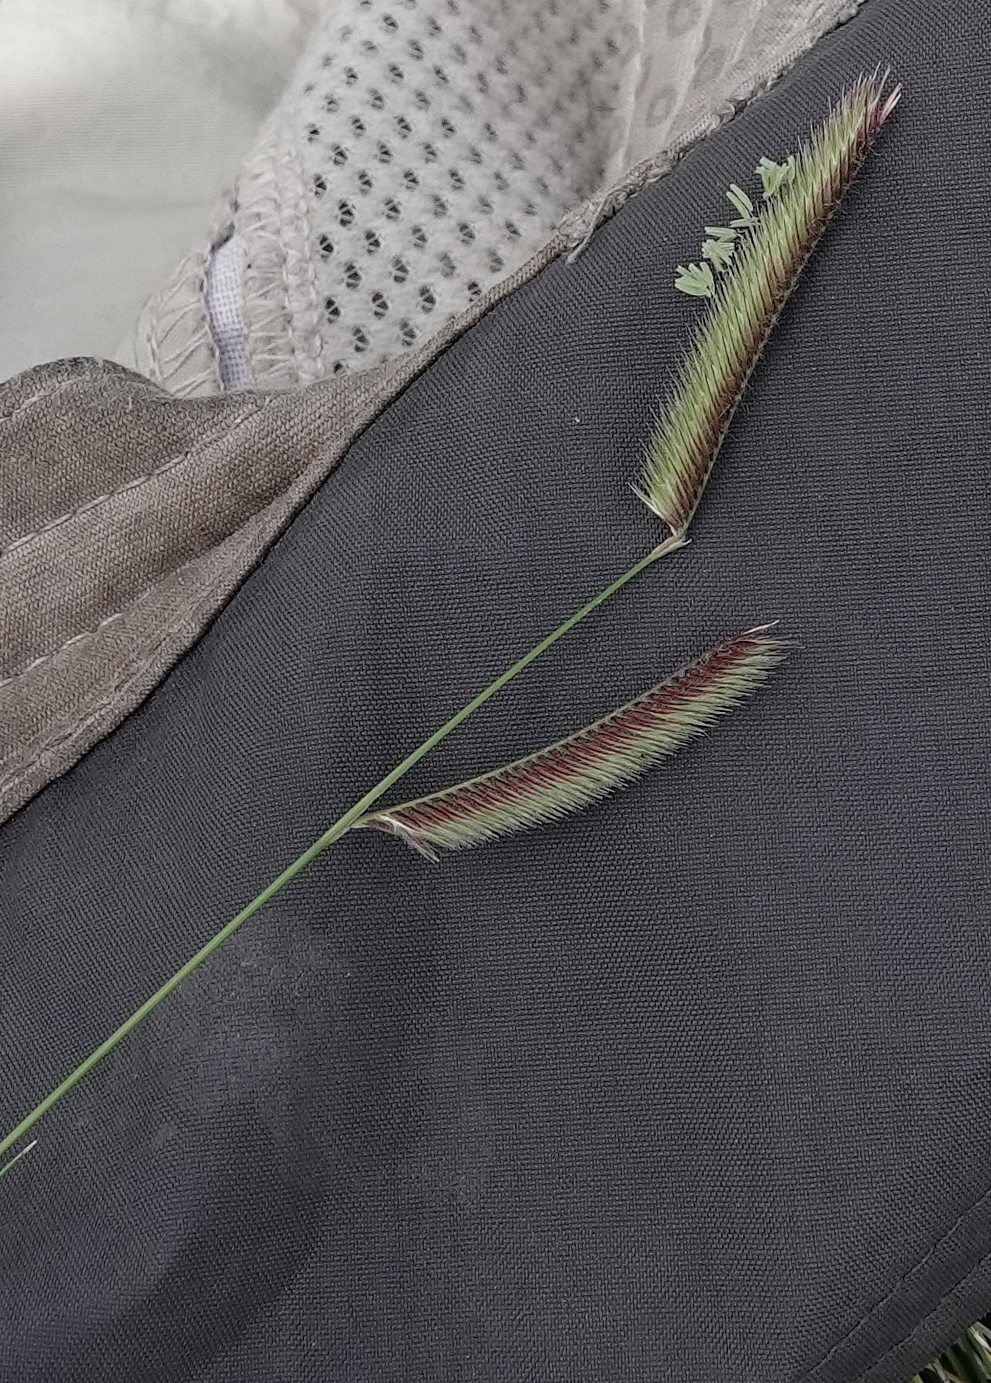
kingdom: Plantae
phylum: Tracheophyta
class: Liliopsida
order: Poales
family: Poaceae
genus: Bouteloua
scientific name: Bouteloua hirsuta
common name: Hairy grama
